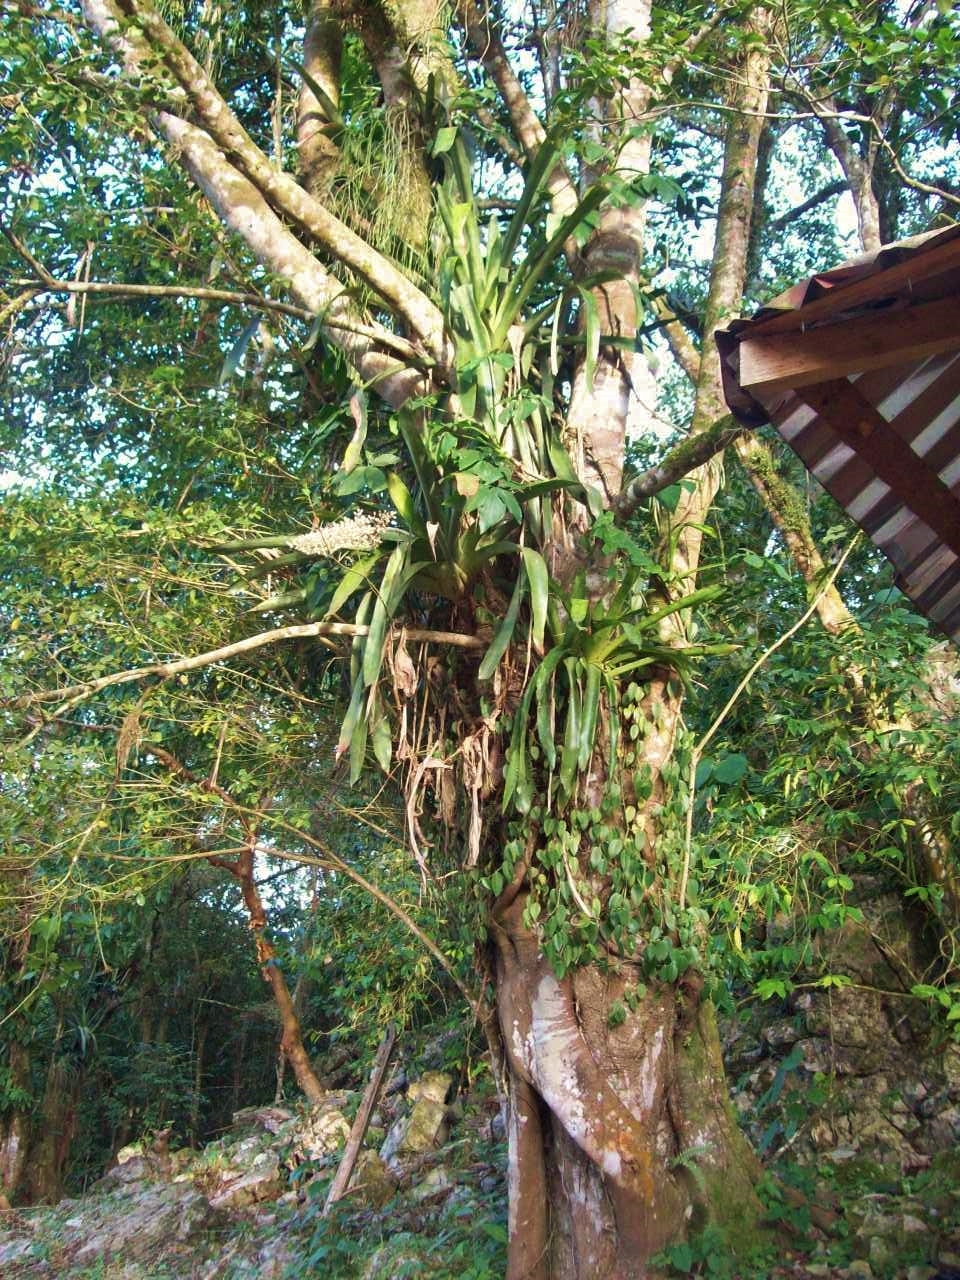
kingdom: Plantae
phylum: Tracheophyta
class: Liliopsida
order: Poales
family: Bromeliaceae
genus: Aechmea
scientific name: Aechmea mexicana
